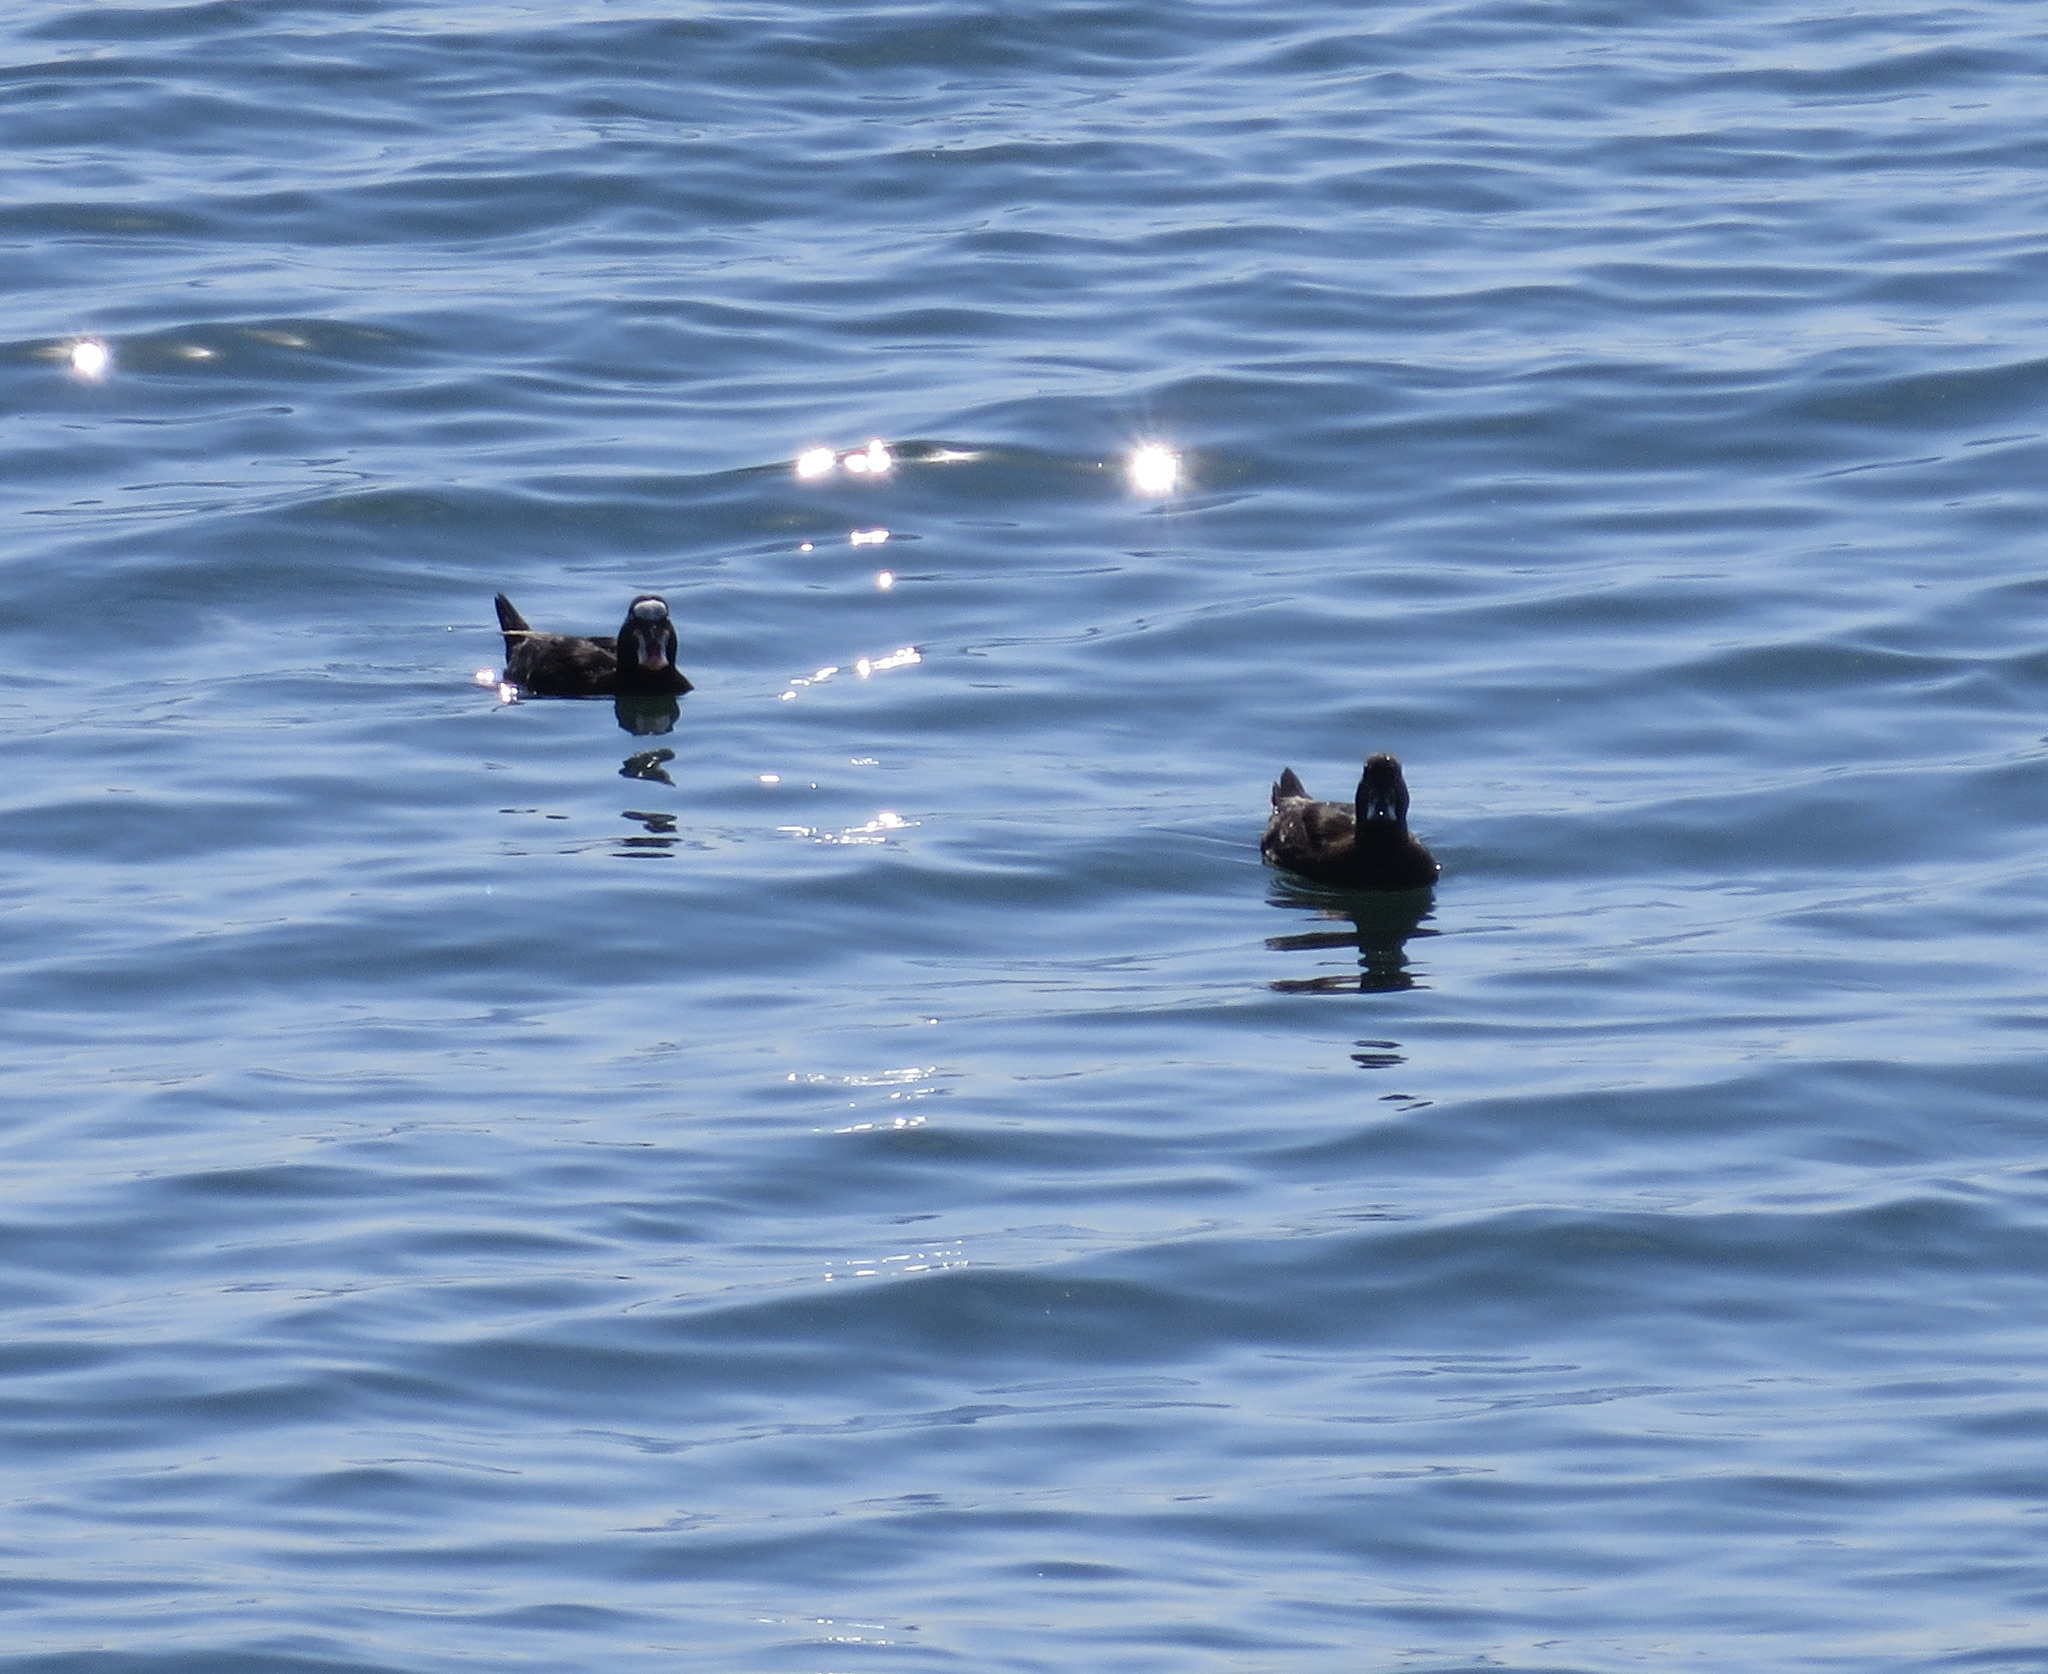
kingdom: Animalia
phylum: Chordata
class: Aves
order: Anseriformes
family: Anatidae
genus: Melanitta
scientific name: Melanitta perspicillata
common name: Surf scoter
